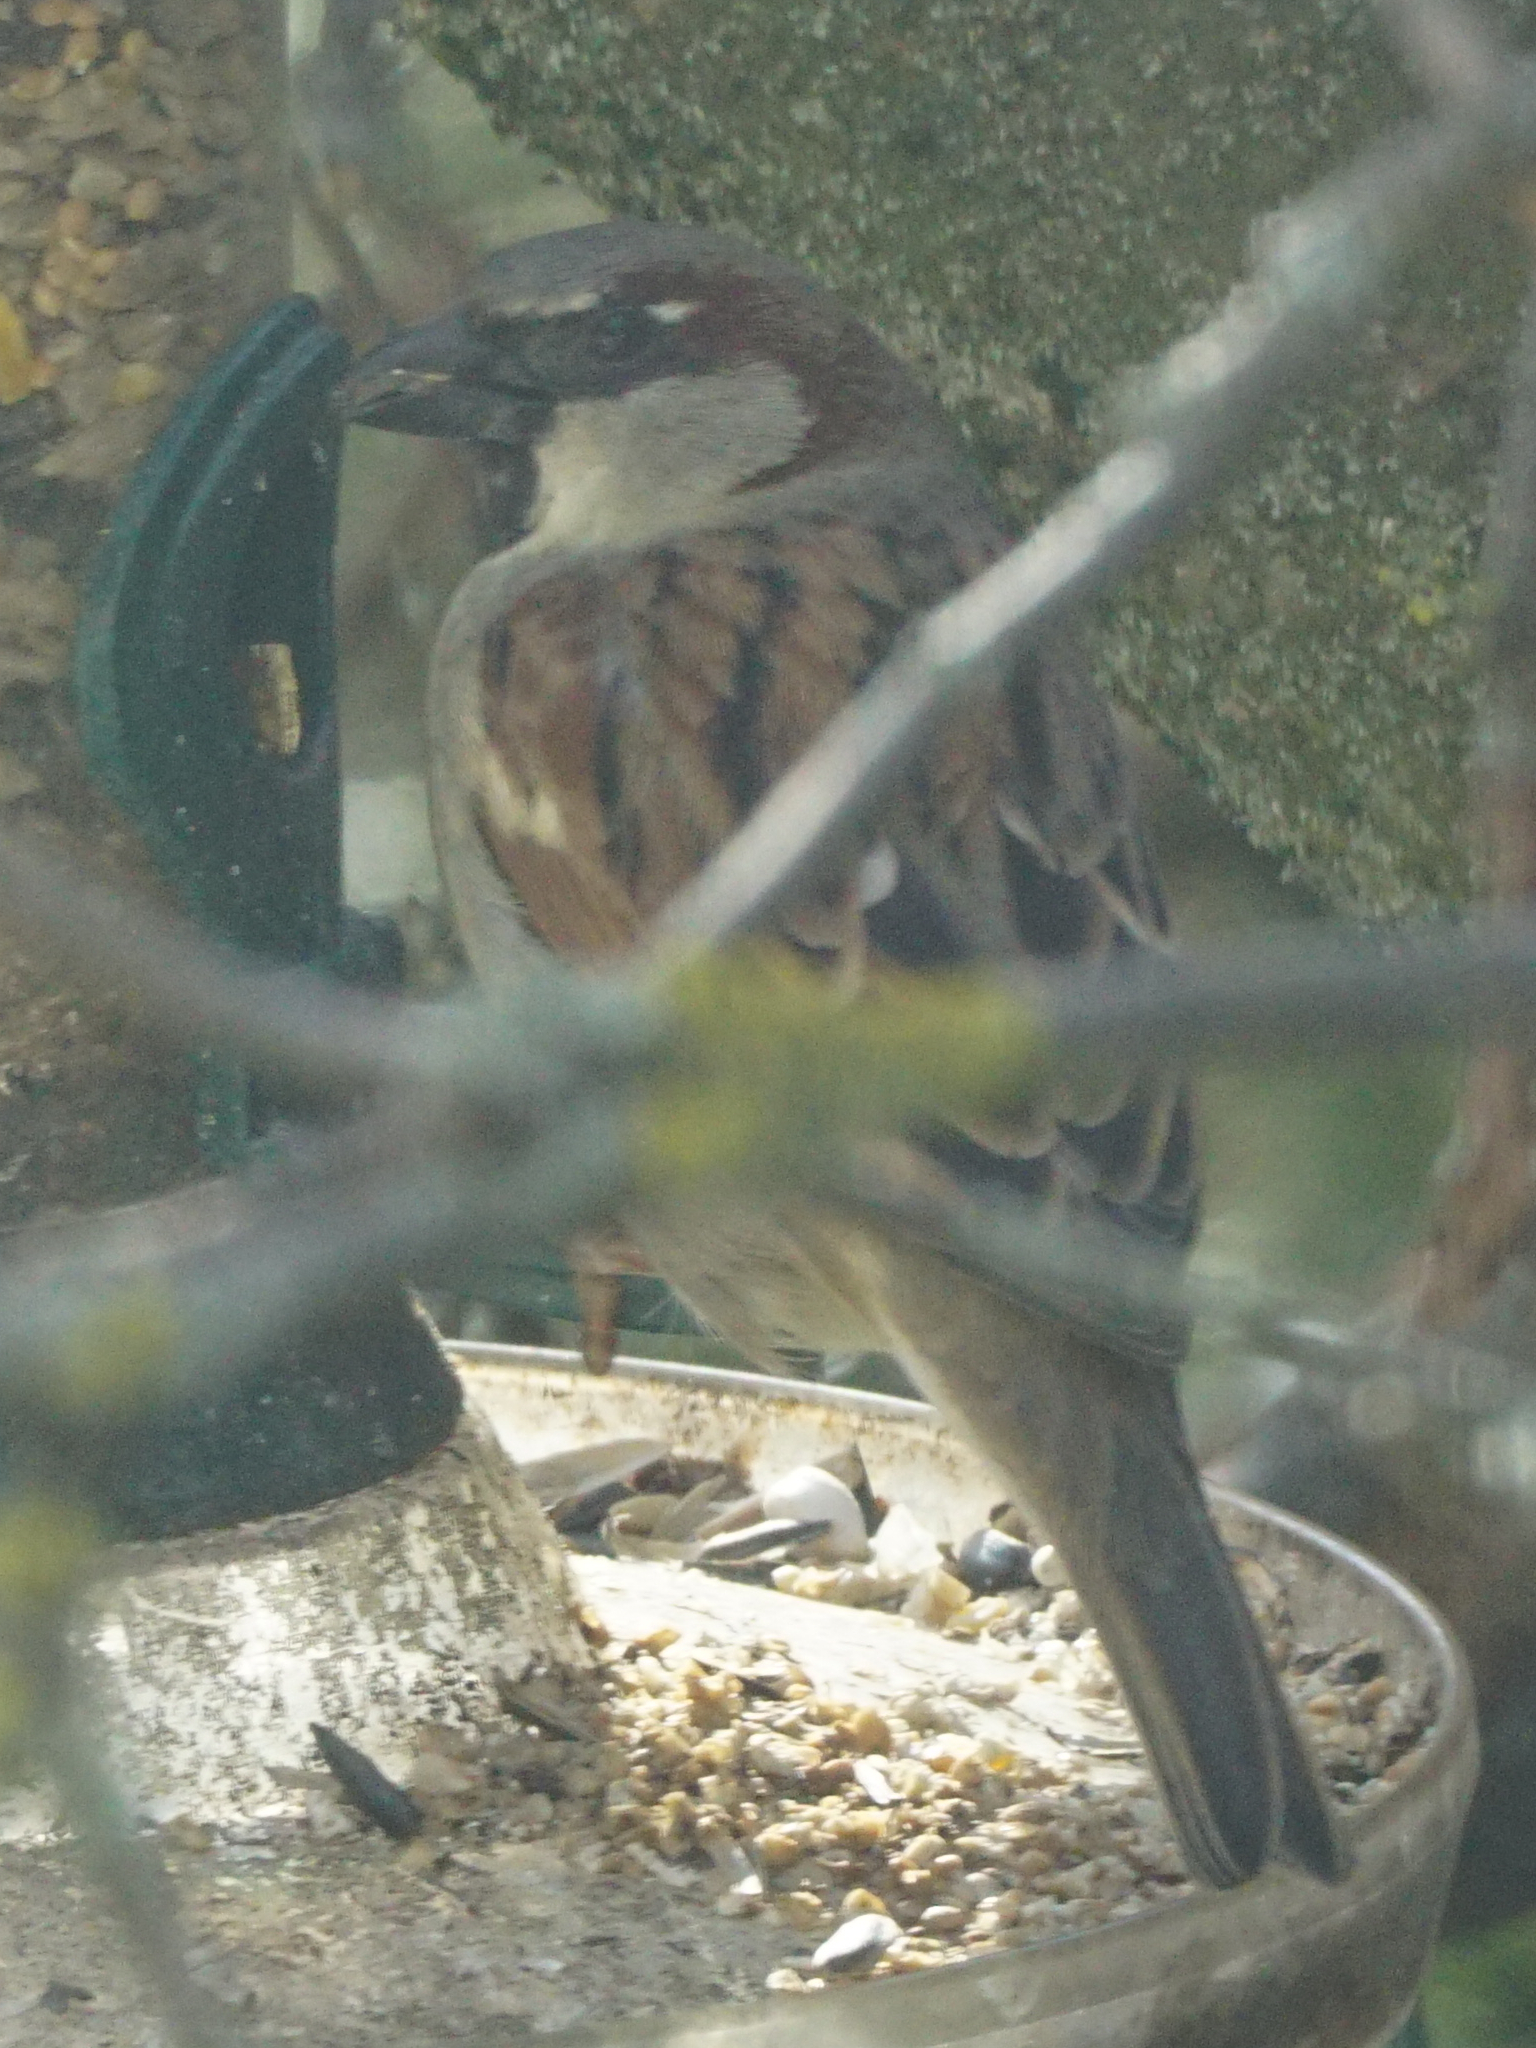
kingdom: Animalia
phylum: Chordata
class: Aves
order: Passeriformes
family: Passeridae
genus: Passer
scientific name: Passer domesticus
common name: House sparrow
